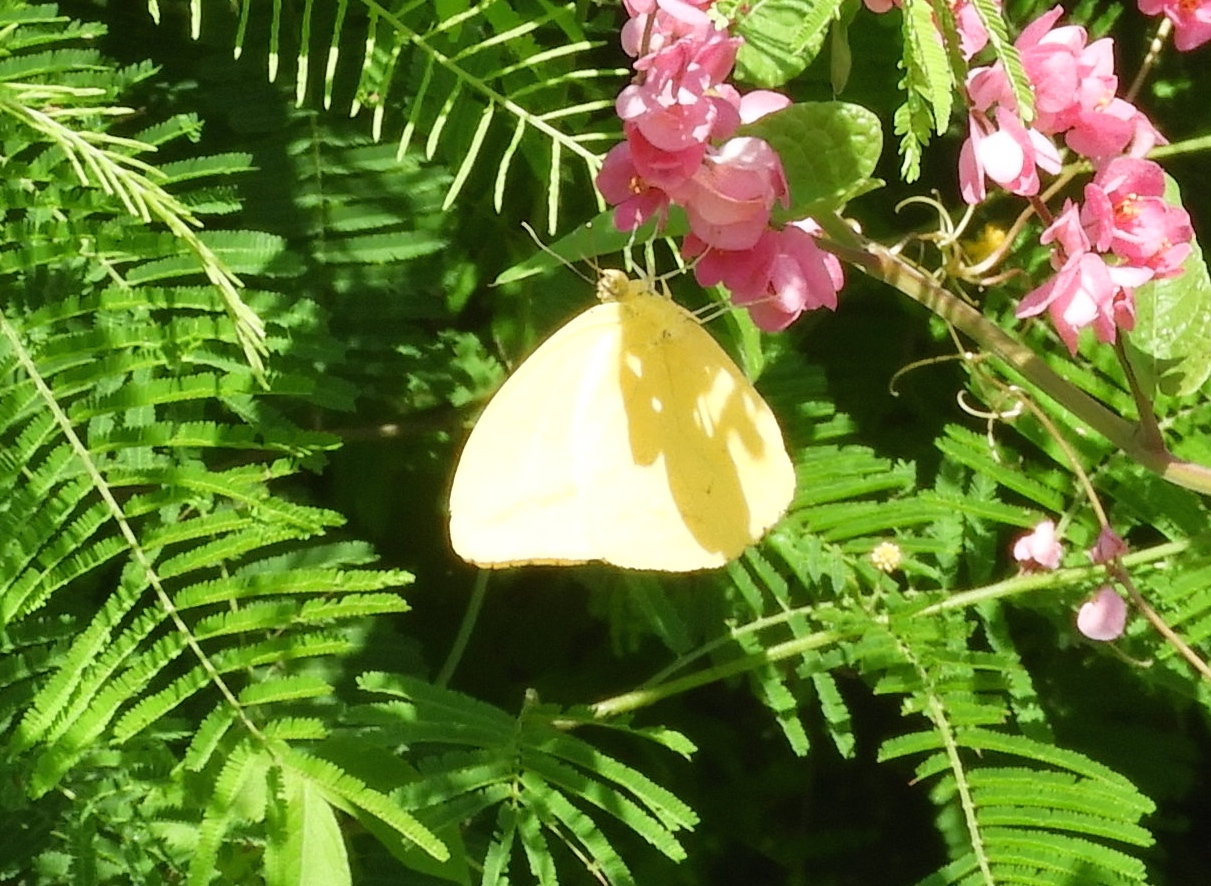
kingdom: Animalia
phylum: Arthropoda
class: Insecta
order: Lepidoptera
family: Pieridae
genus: Phoebis
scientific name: Phoebis agarithe
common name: Large orange sulphur
